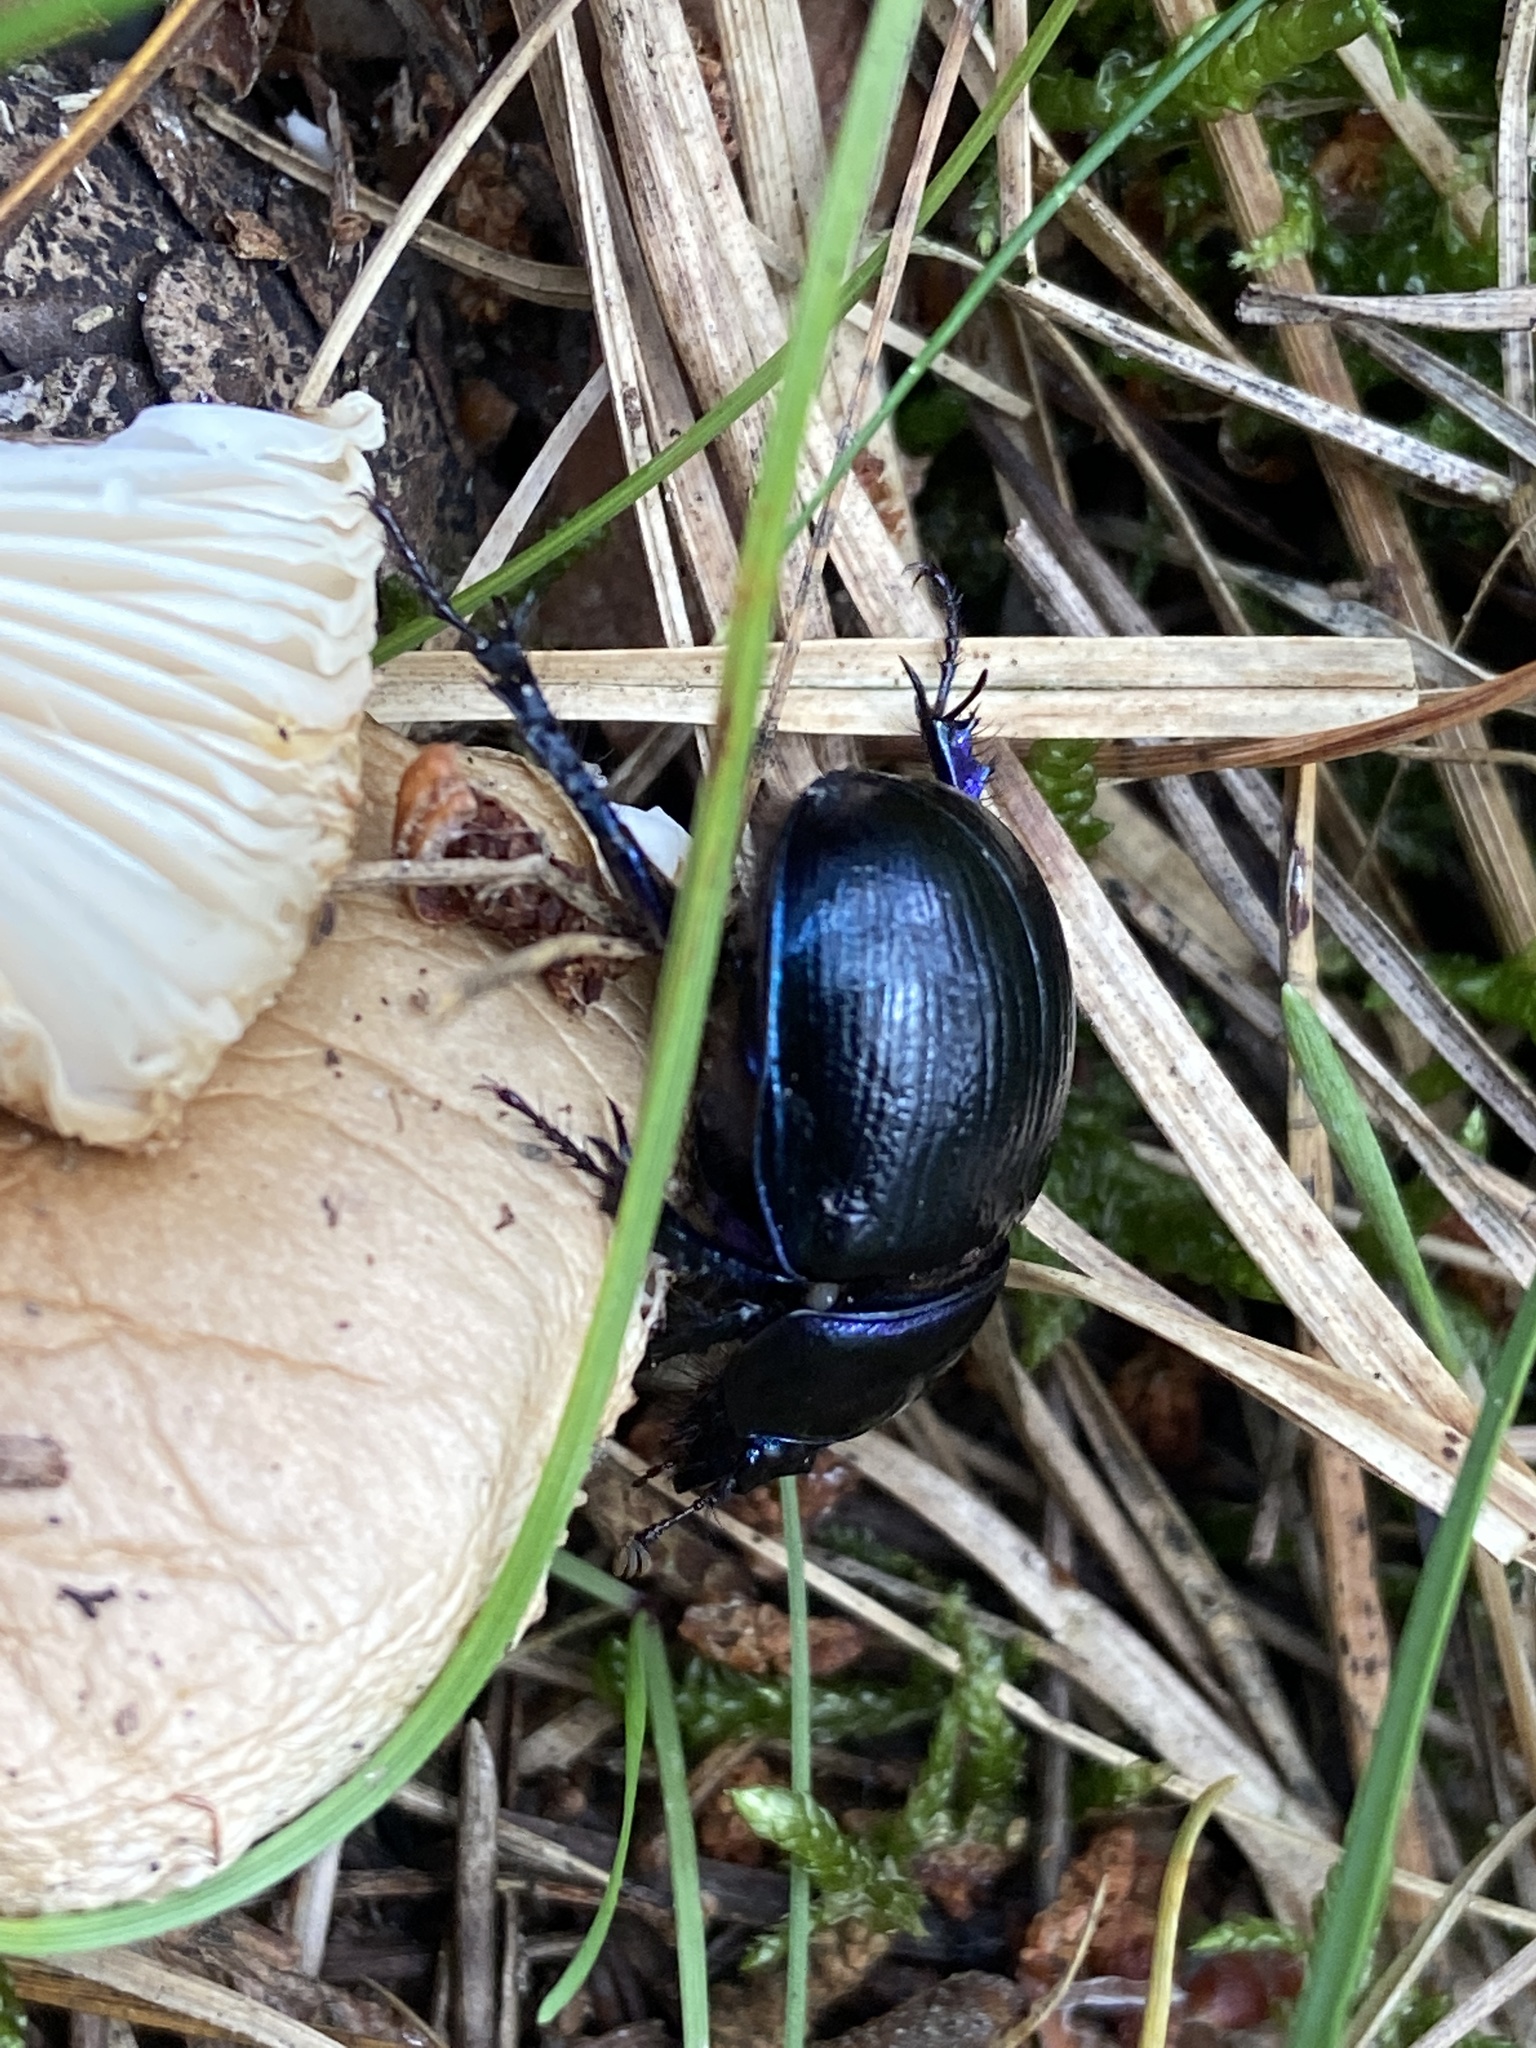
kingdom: Animalia
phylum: Arthropoda
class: Insecta
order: Coleoptera
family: Geotrupidae
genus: Anoplotrupes
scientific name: Anoplotrupes stercorosus
